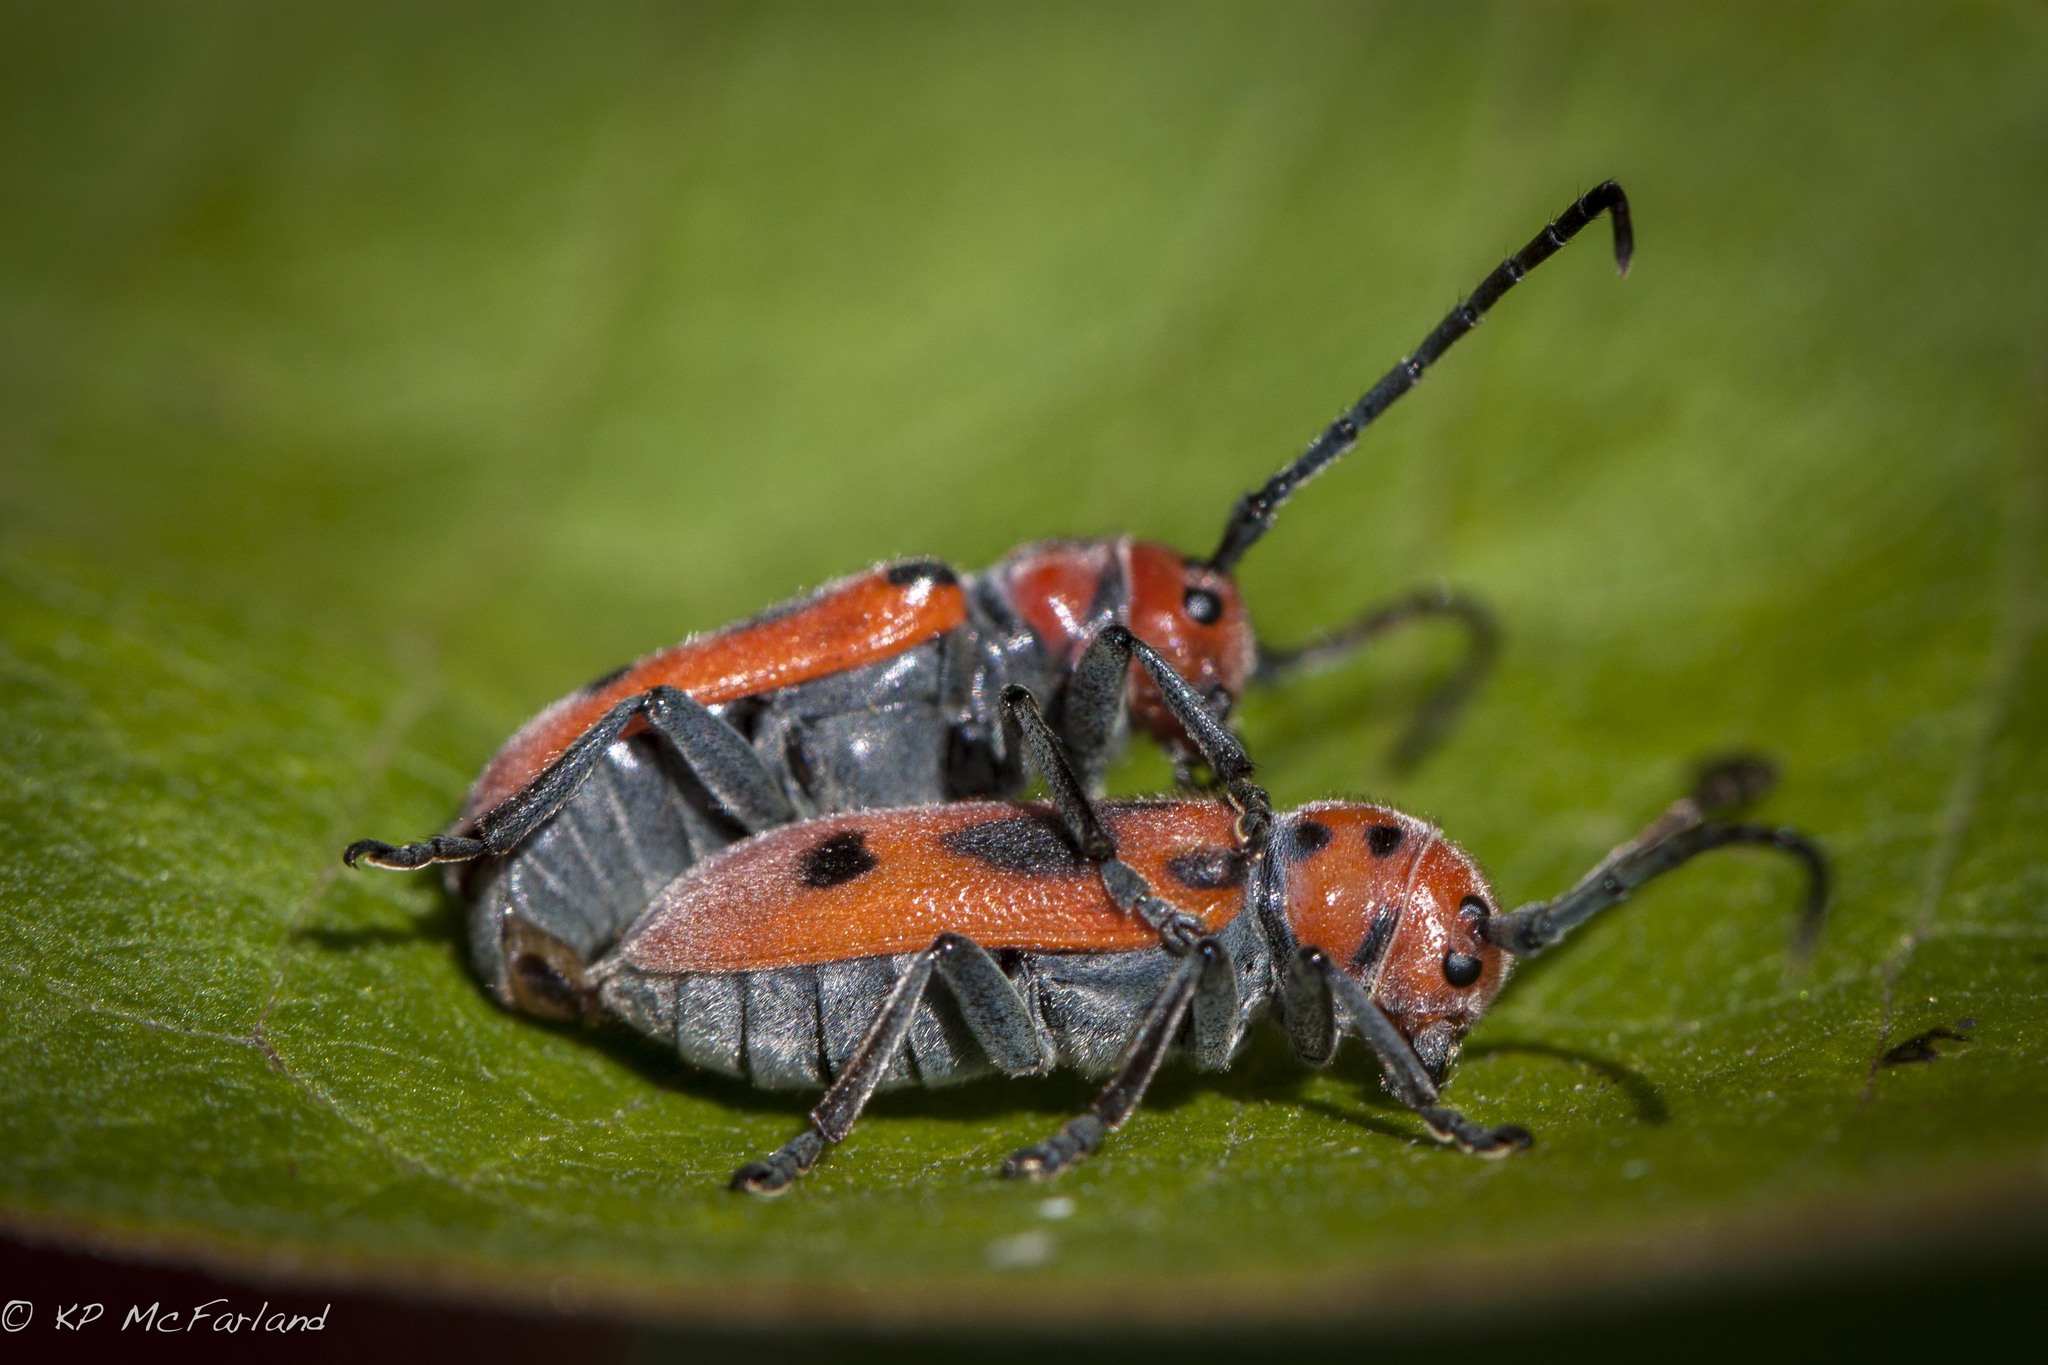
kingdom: Animalia
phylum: Arthropoda
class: Insecta
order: Coleoptera
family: Cerambycidae
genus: Tetraopes
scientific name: Tetraopes tetrophthalmus
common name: Red milkweed beetle
